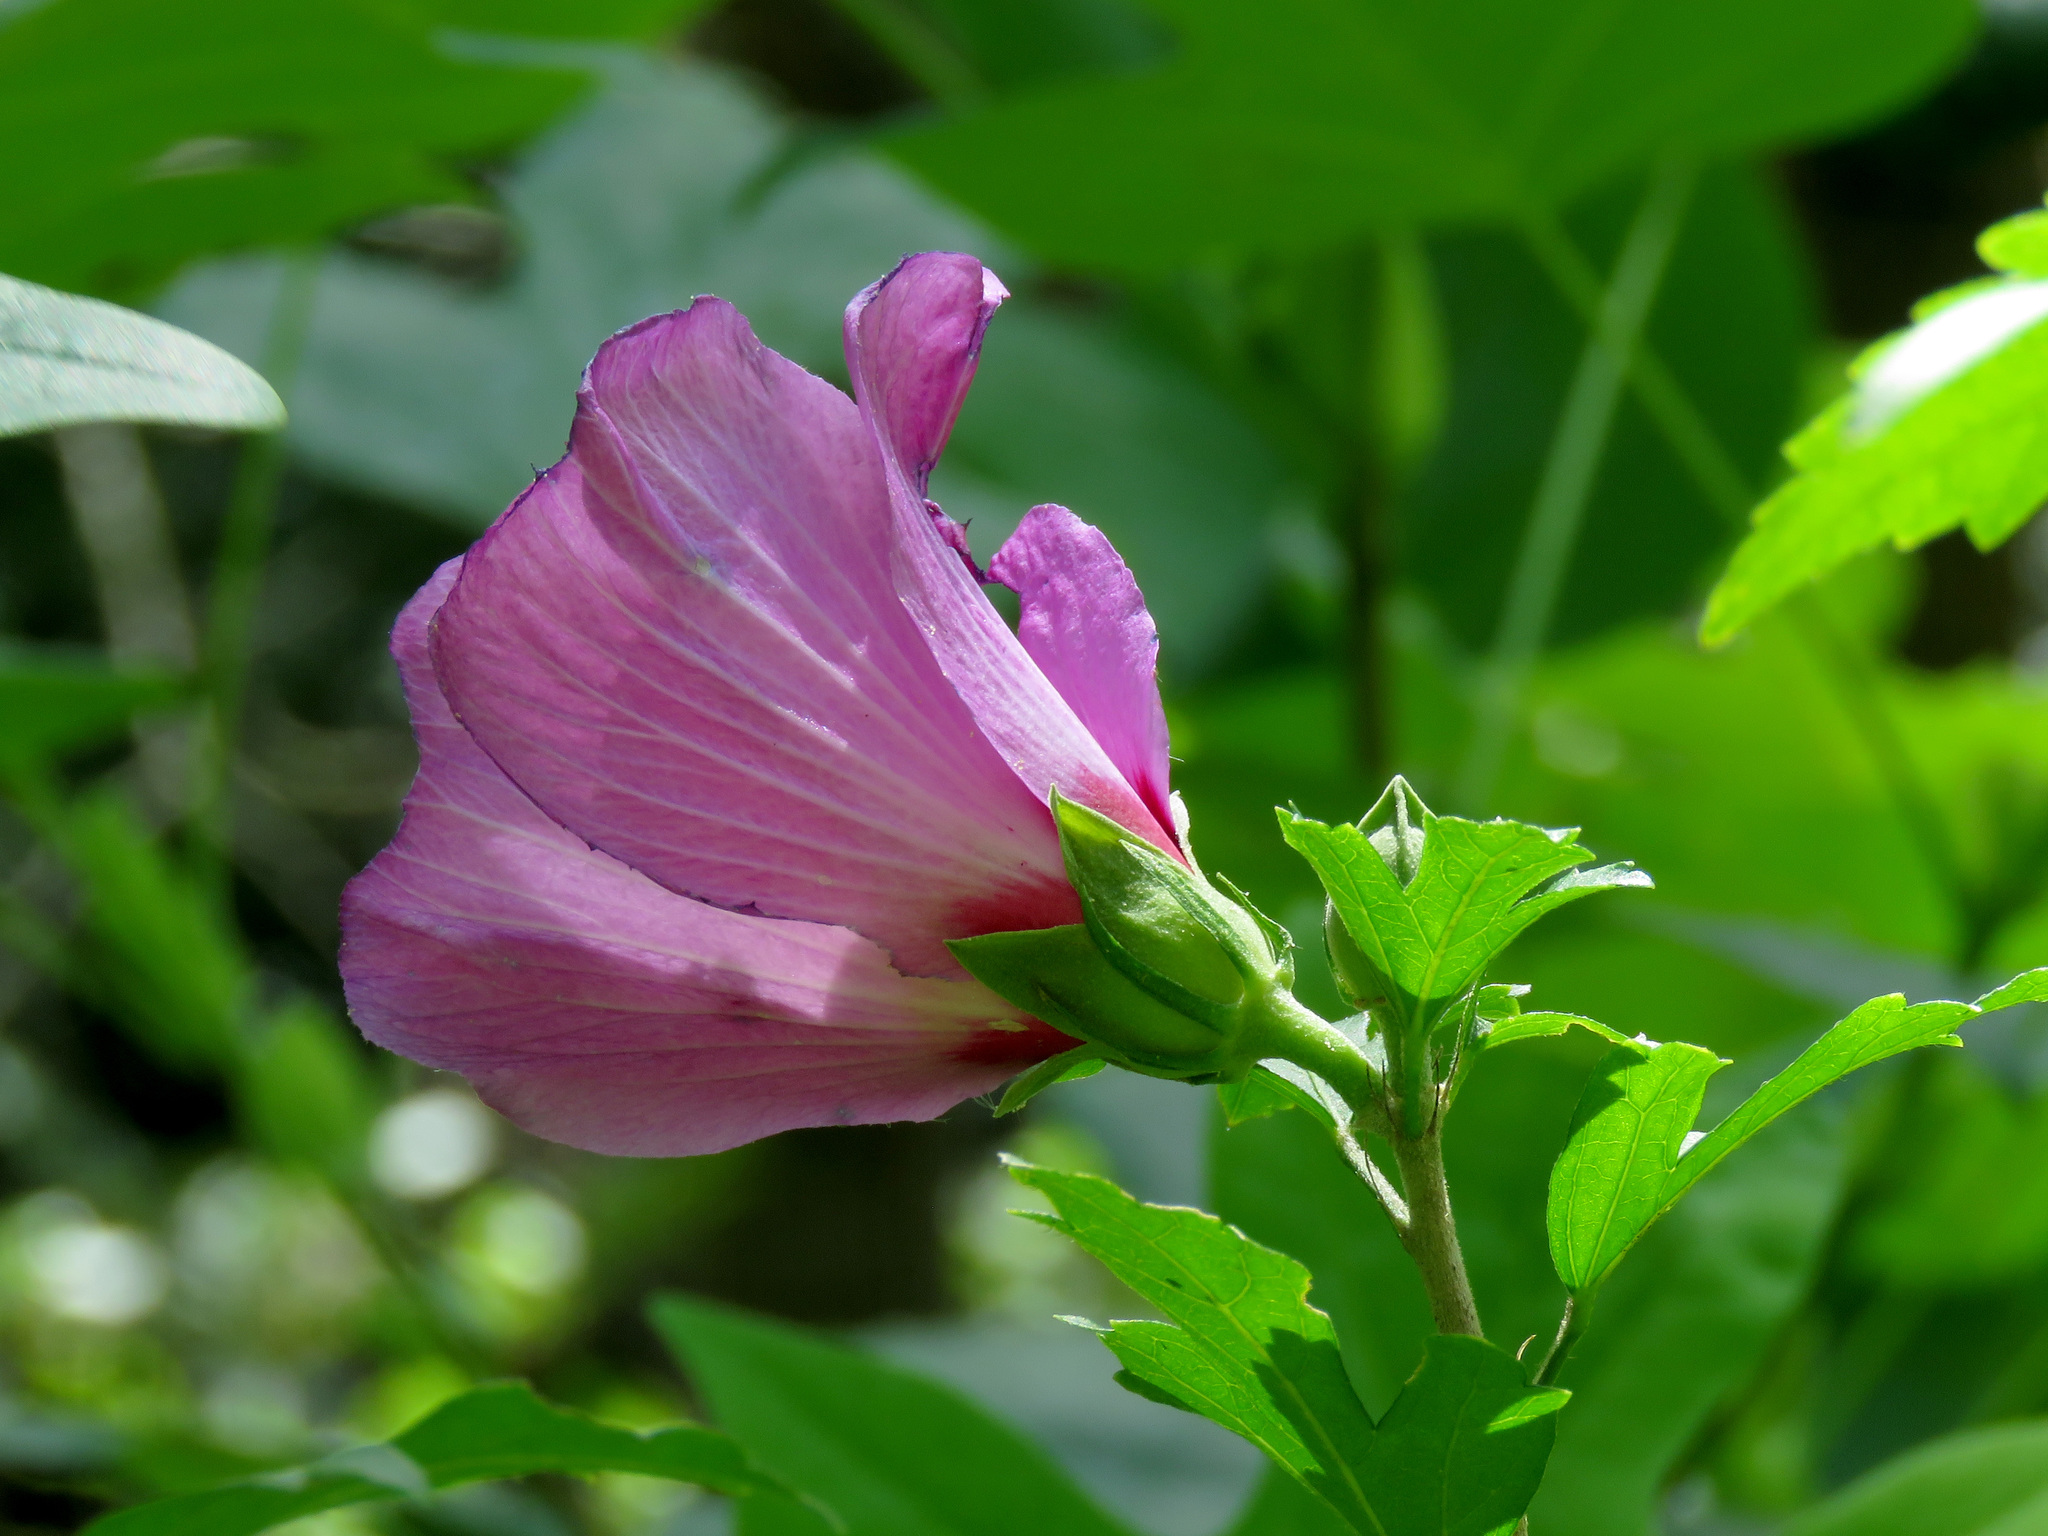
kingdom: Plantae
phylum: Tracheophyta
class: Magnoliopsida
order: Malvales
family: Malvaceae
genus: Hibiscus
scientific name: Hibiscus syriacus
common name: Syrian ketmia
